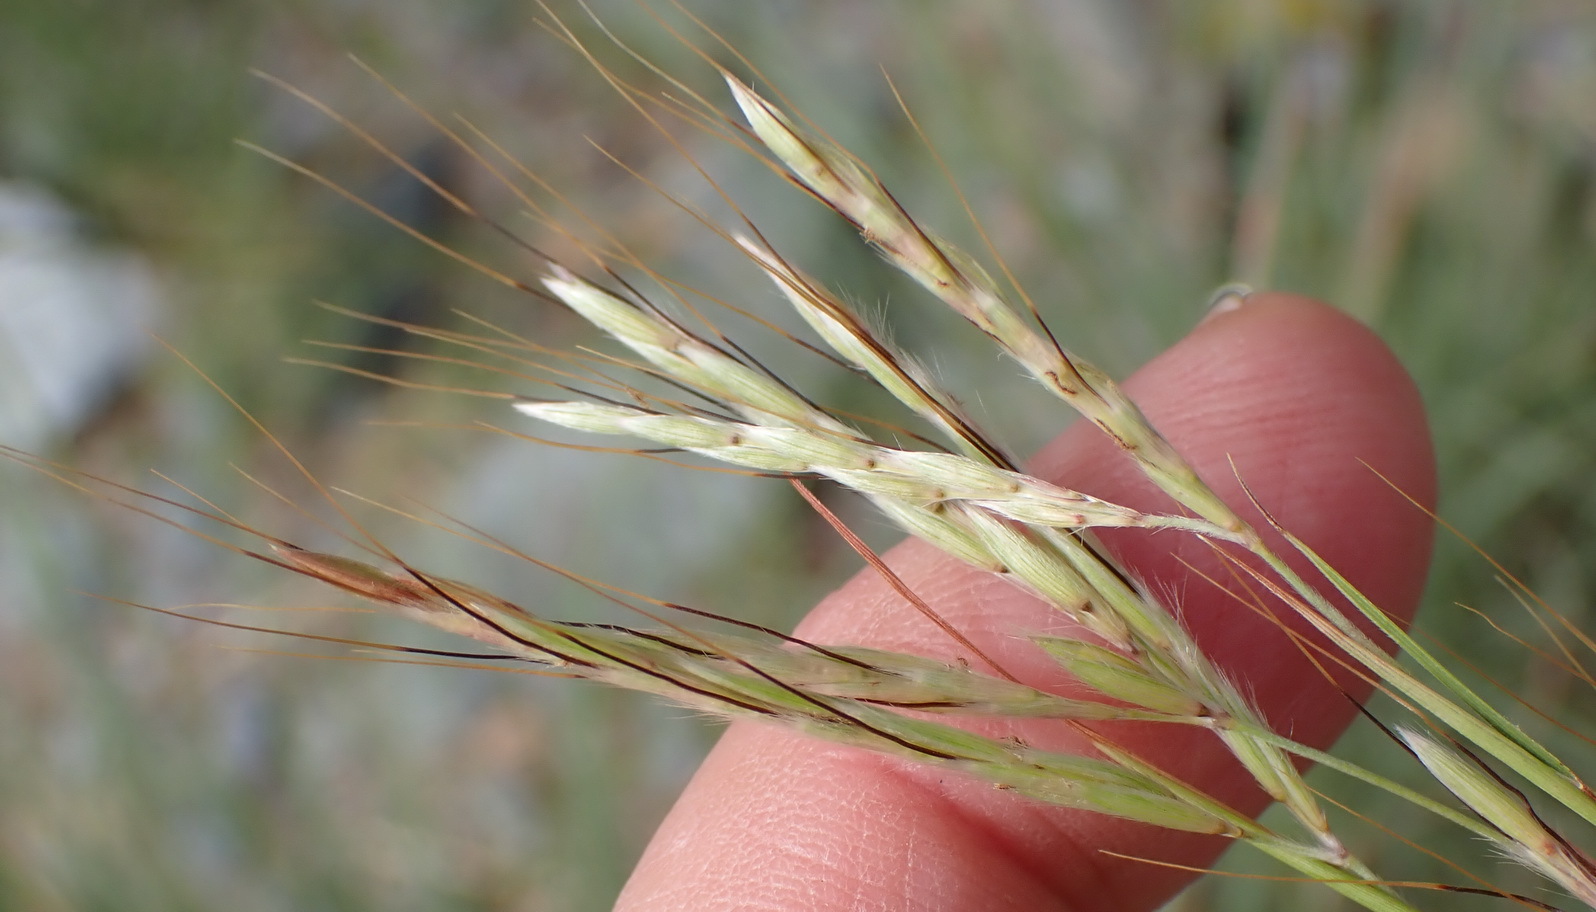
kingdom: Plantae
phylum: Tracheophyta
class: Liliopsida
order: Poales
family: Poaceae
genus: Hyparrhenia
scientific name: Hyparrhenia hirta
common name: Thatching grass
